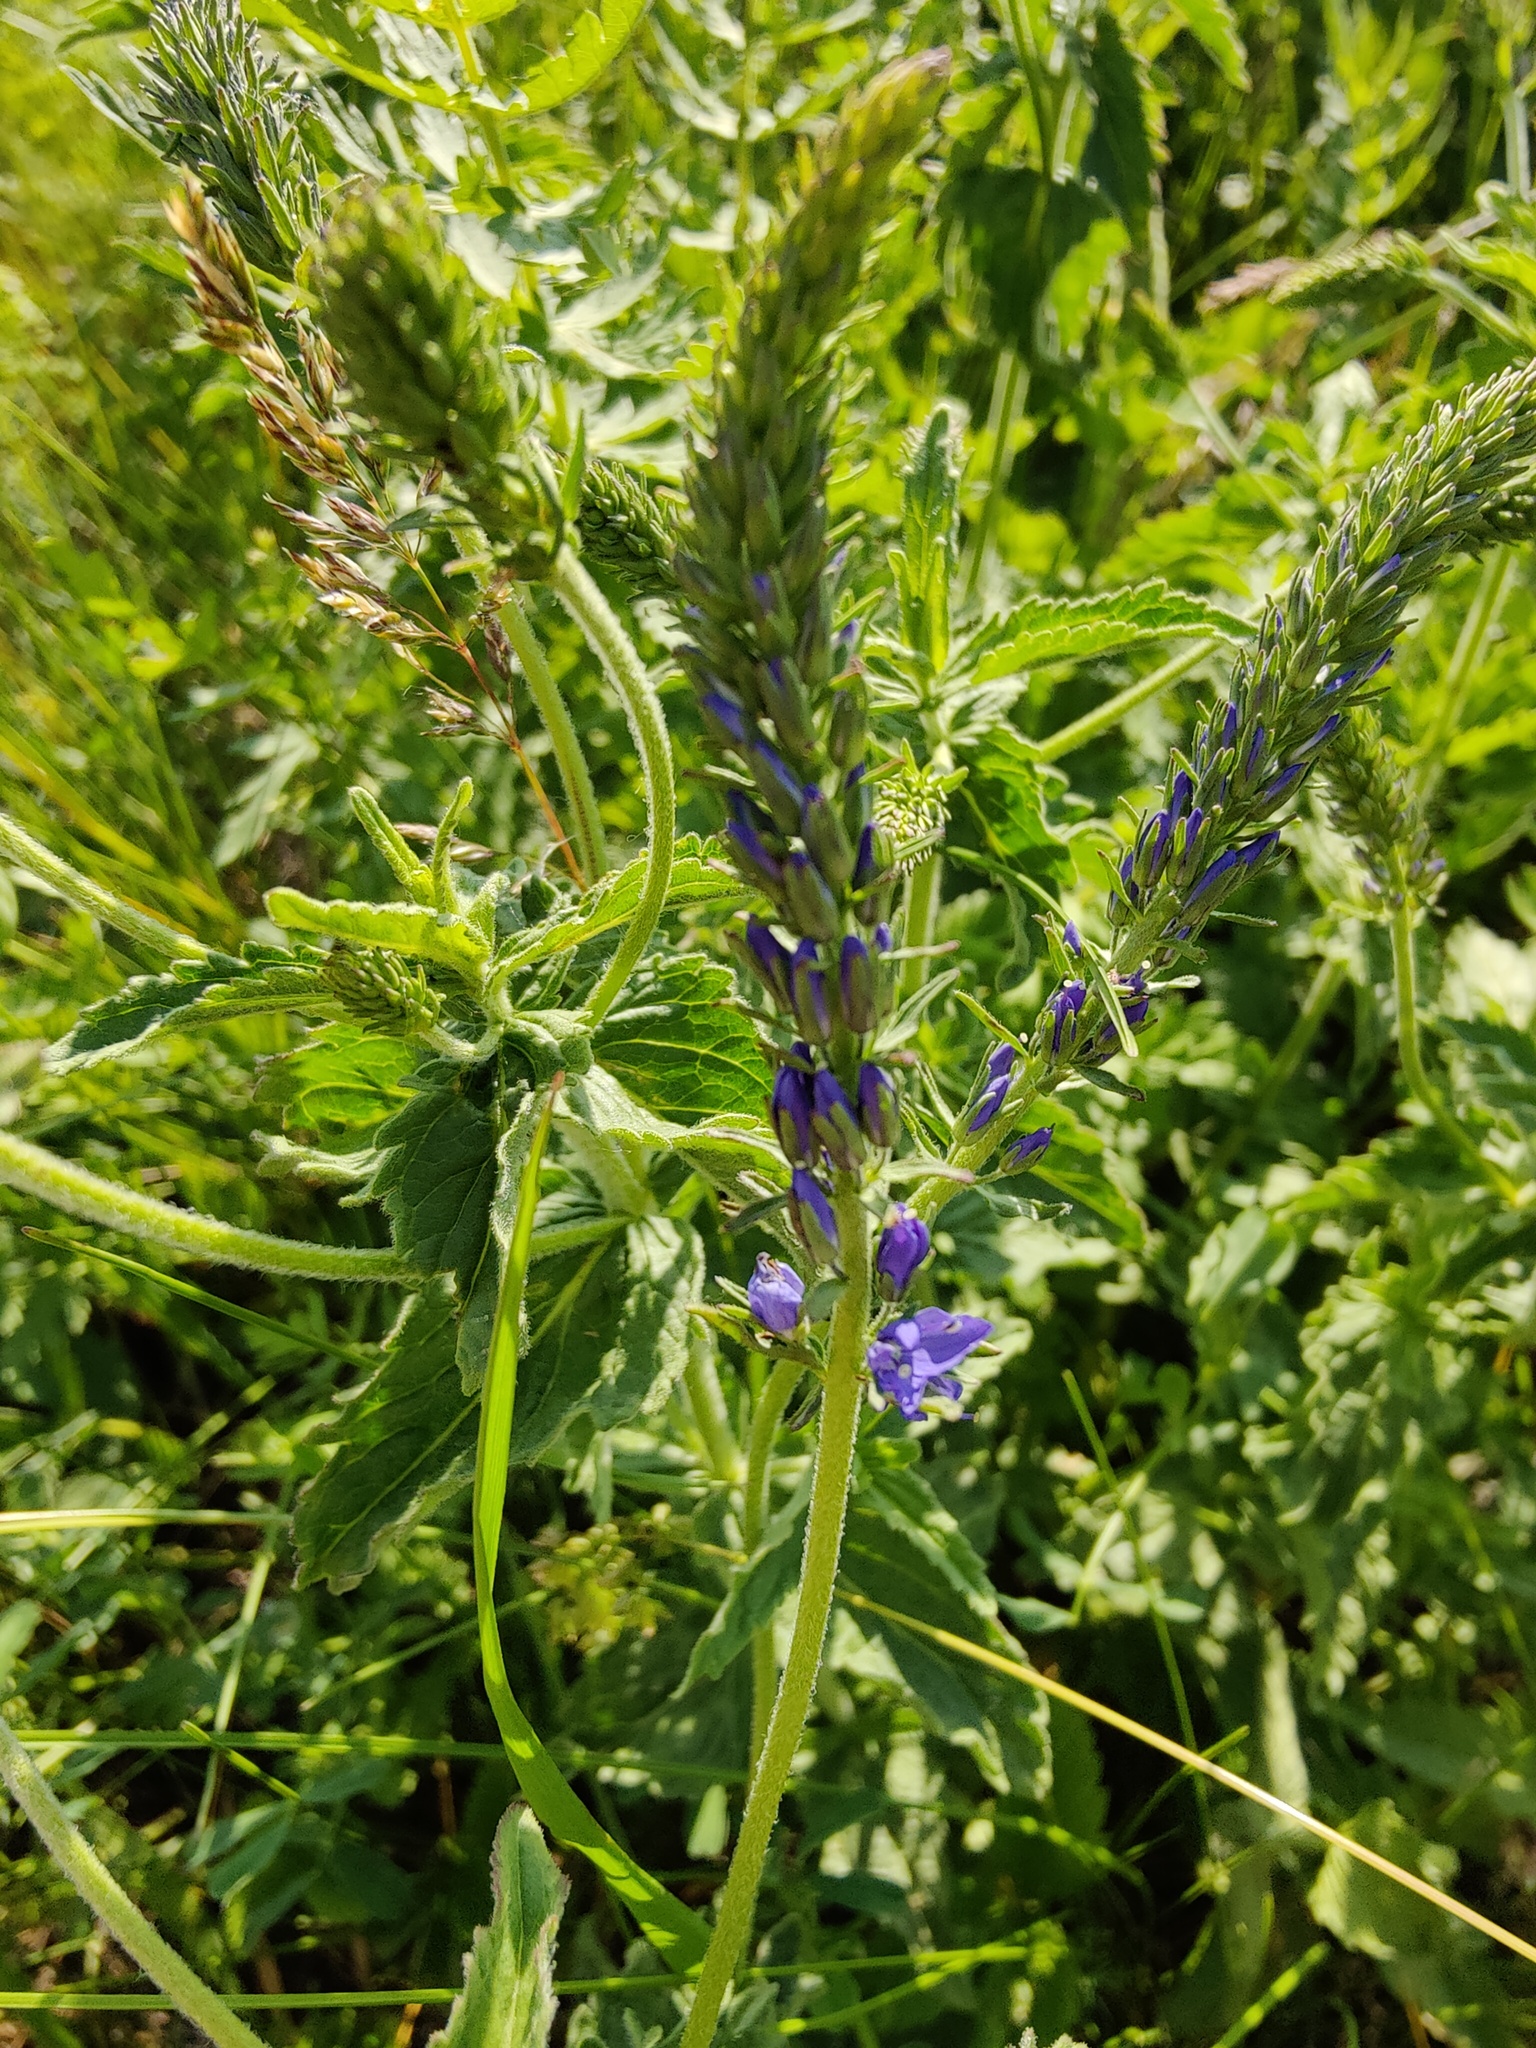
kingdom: Plantae
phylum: Tracheophyta
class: Magnoliopsida
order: Lamiales
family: Plantaginaceae
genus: Veronica
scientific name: Veronica teucrium
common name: Large speedwell
